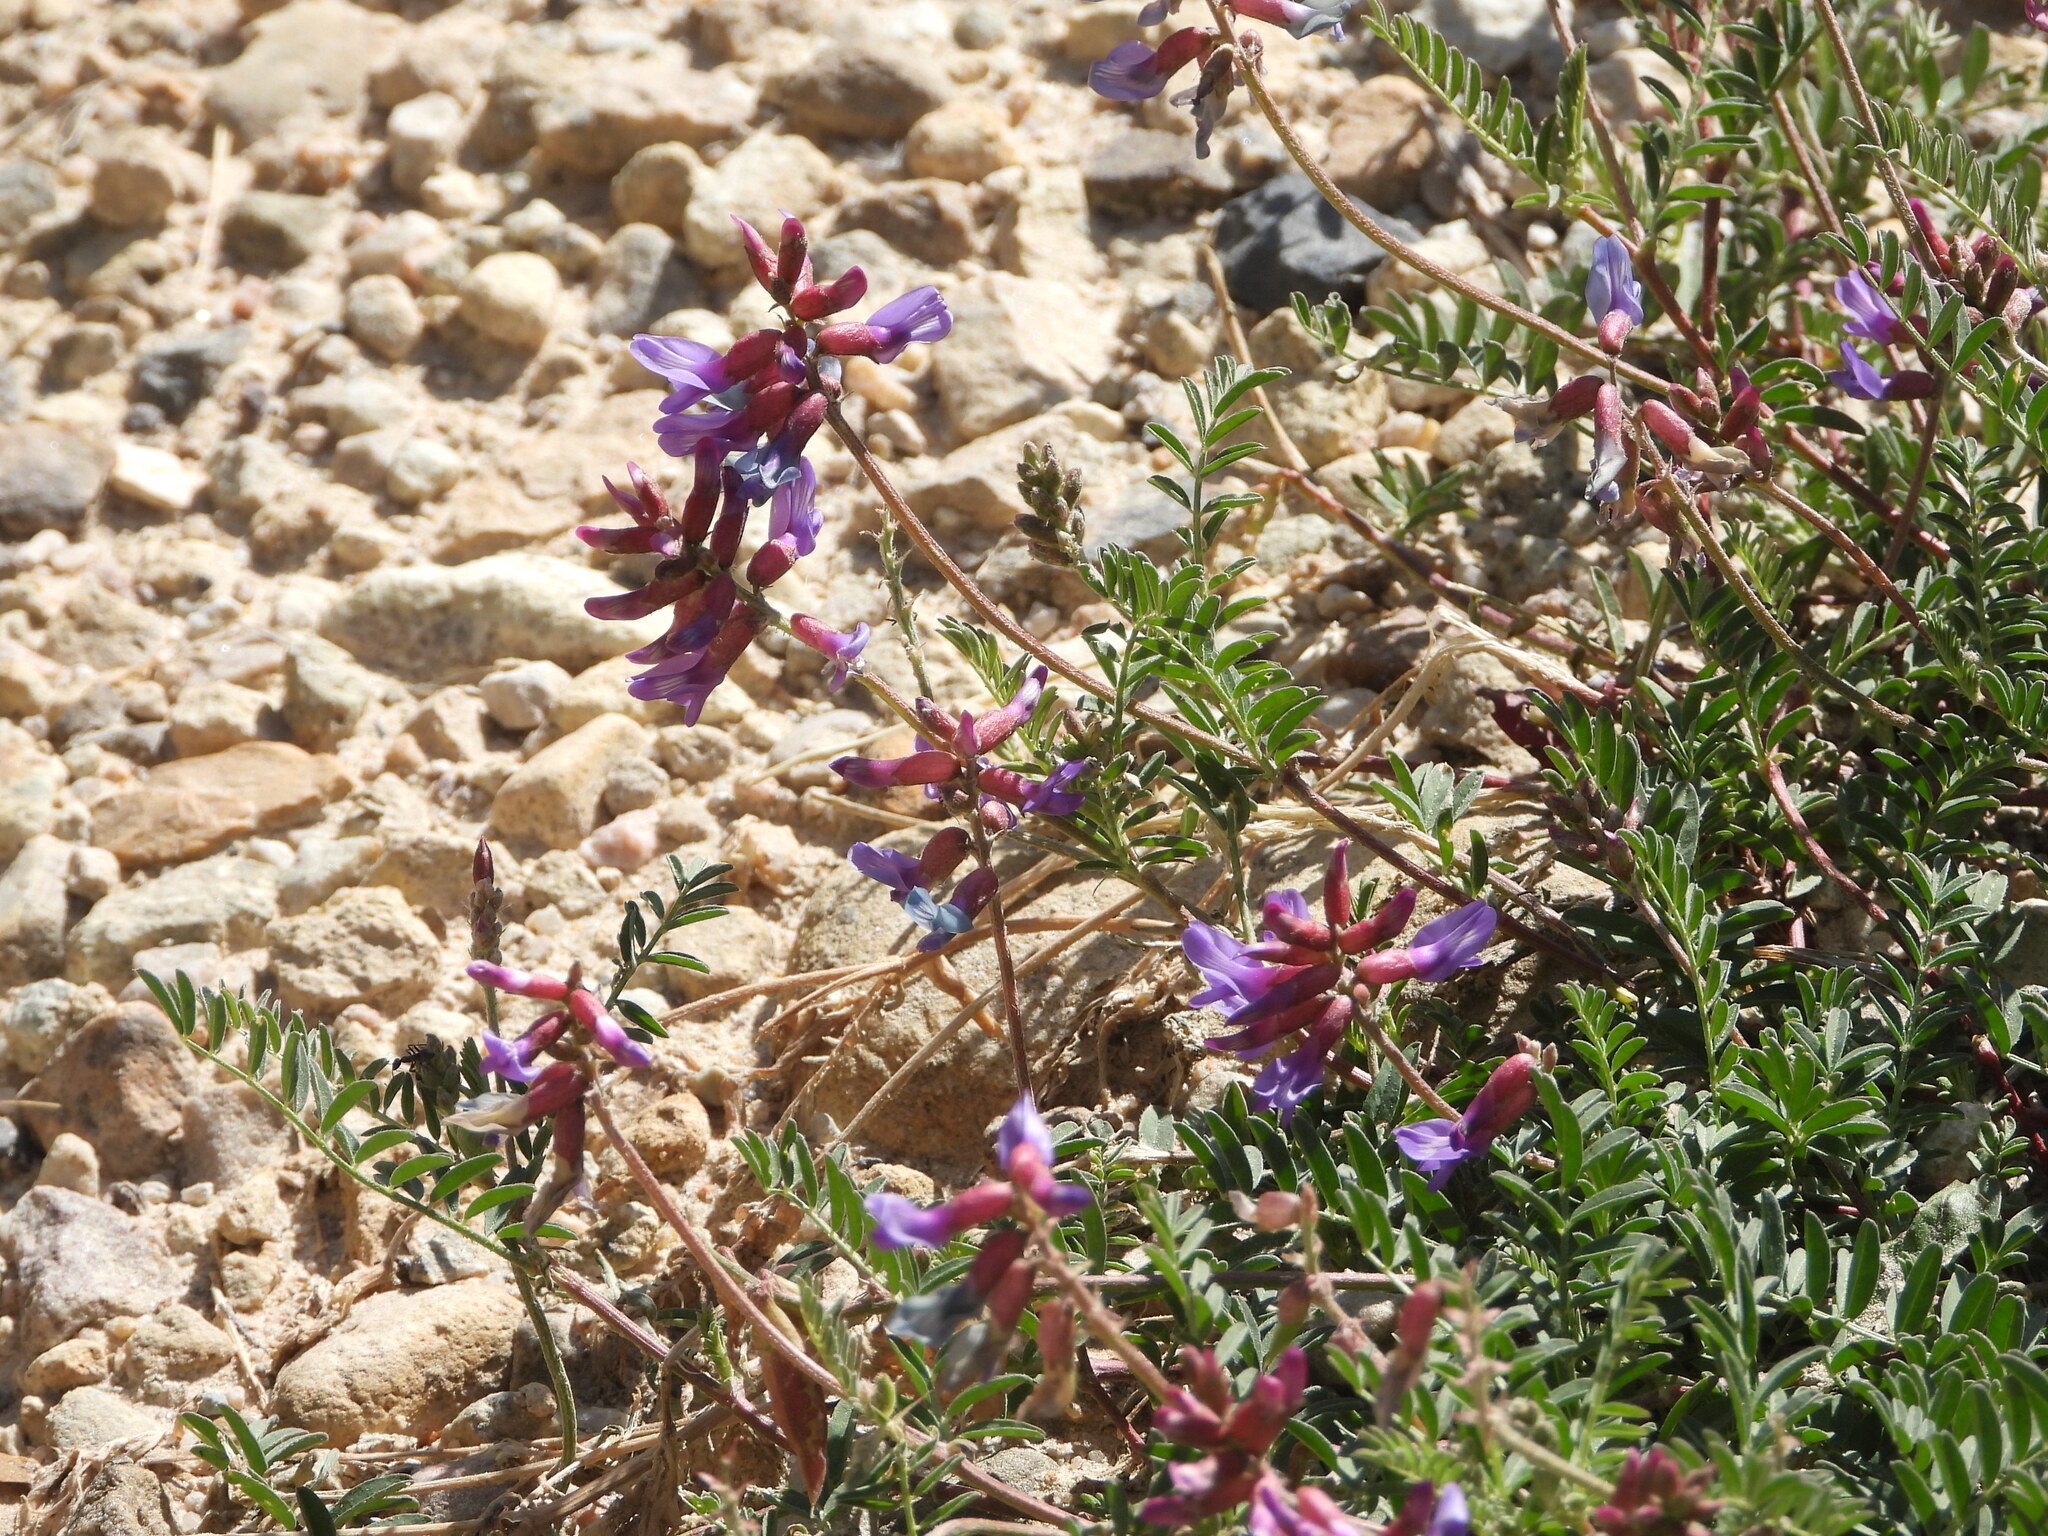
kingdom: Plantae
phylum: Tracheophyta
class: Magnoliopsida
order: Fabales
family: Fabaceae
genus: Astragalus
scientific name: Astragalus hallii
